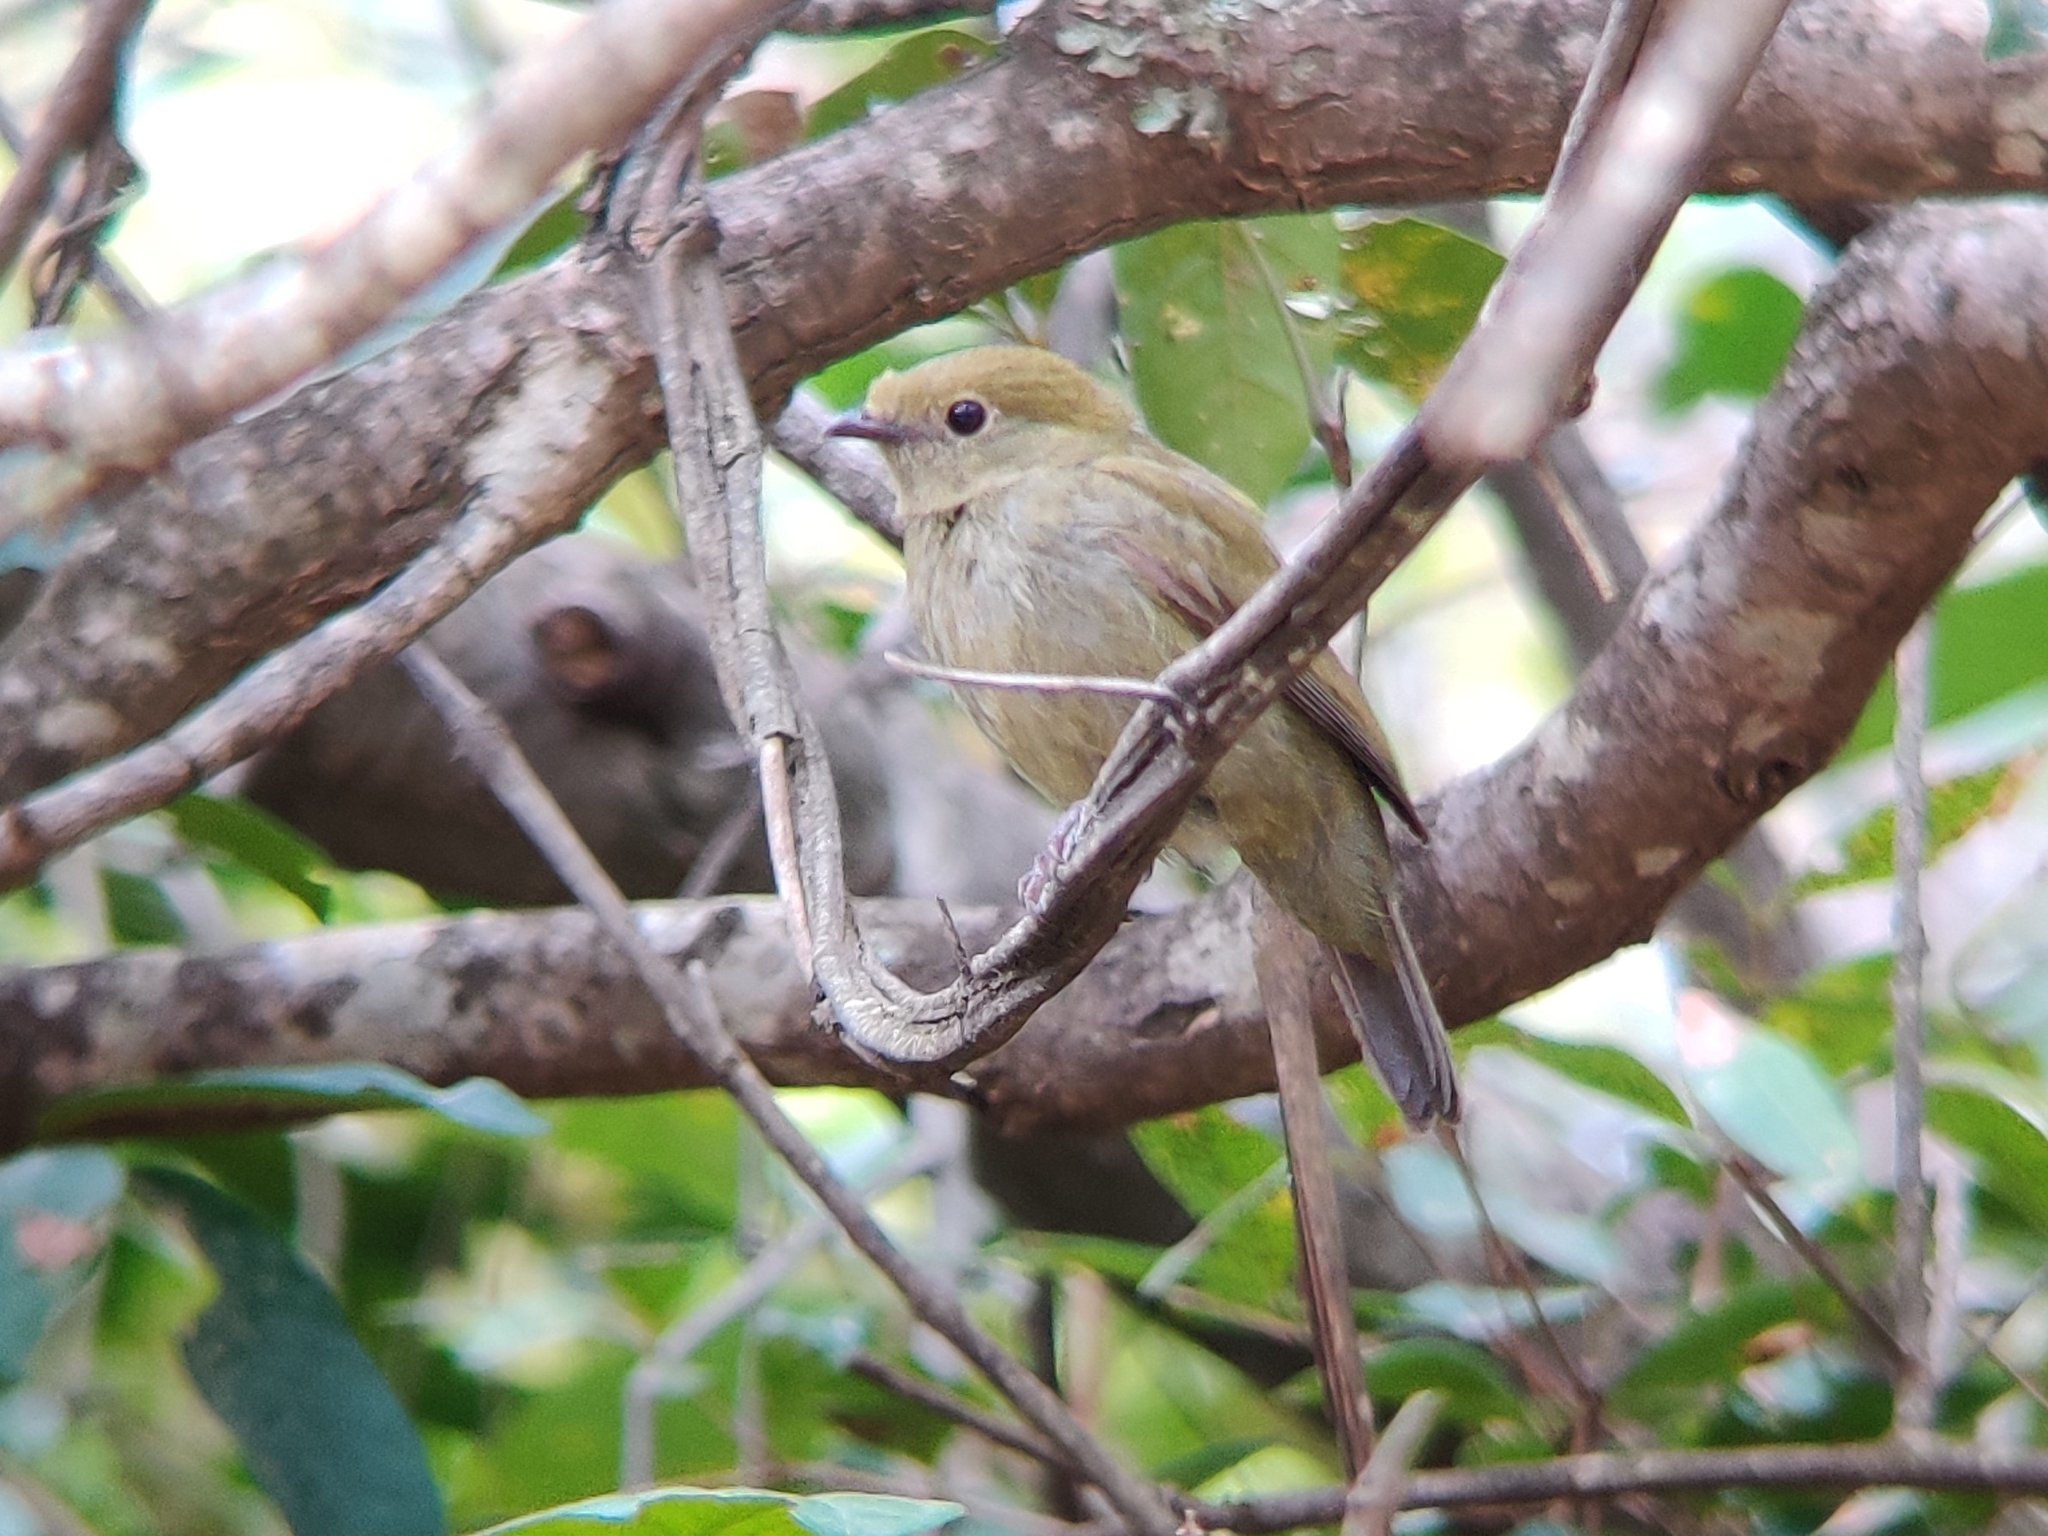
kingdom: Animalia
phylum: Chordata
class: Aves
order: Passeriformes
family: Pipridae
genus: Antilophia
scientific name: Antilophia galeata
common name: Helmeted manakin
